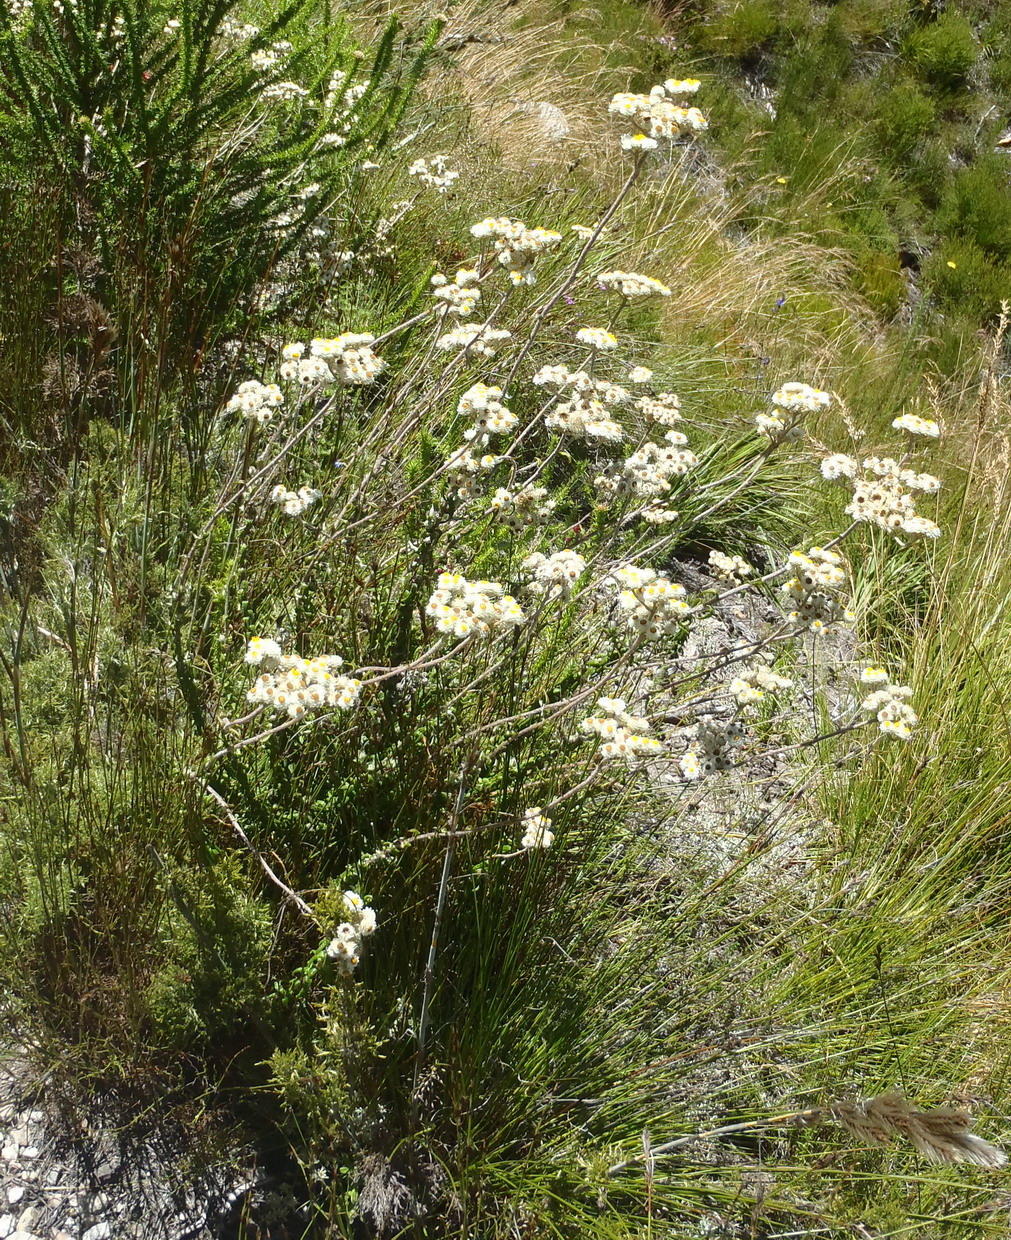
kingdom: Plantae
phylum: Tracheophyta
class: Magnoliopsida
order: Asterales
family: Asteraceae
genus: Helichrysum
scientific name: Helichrysum felinum
